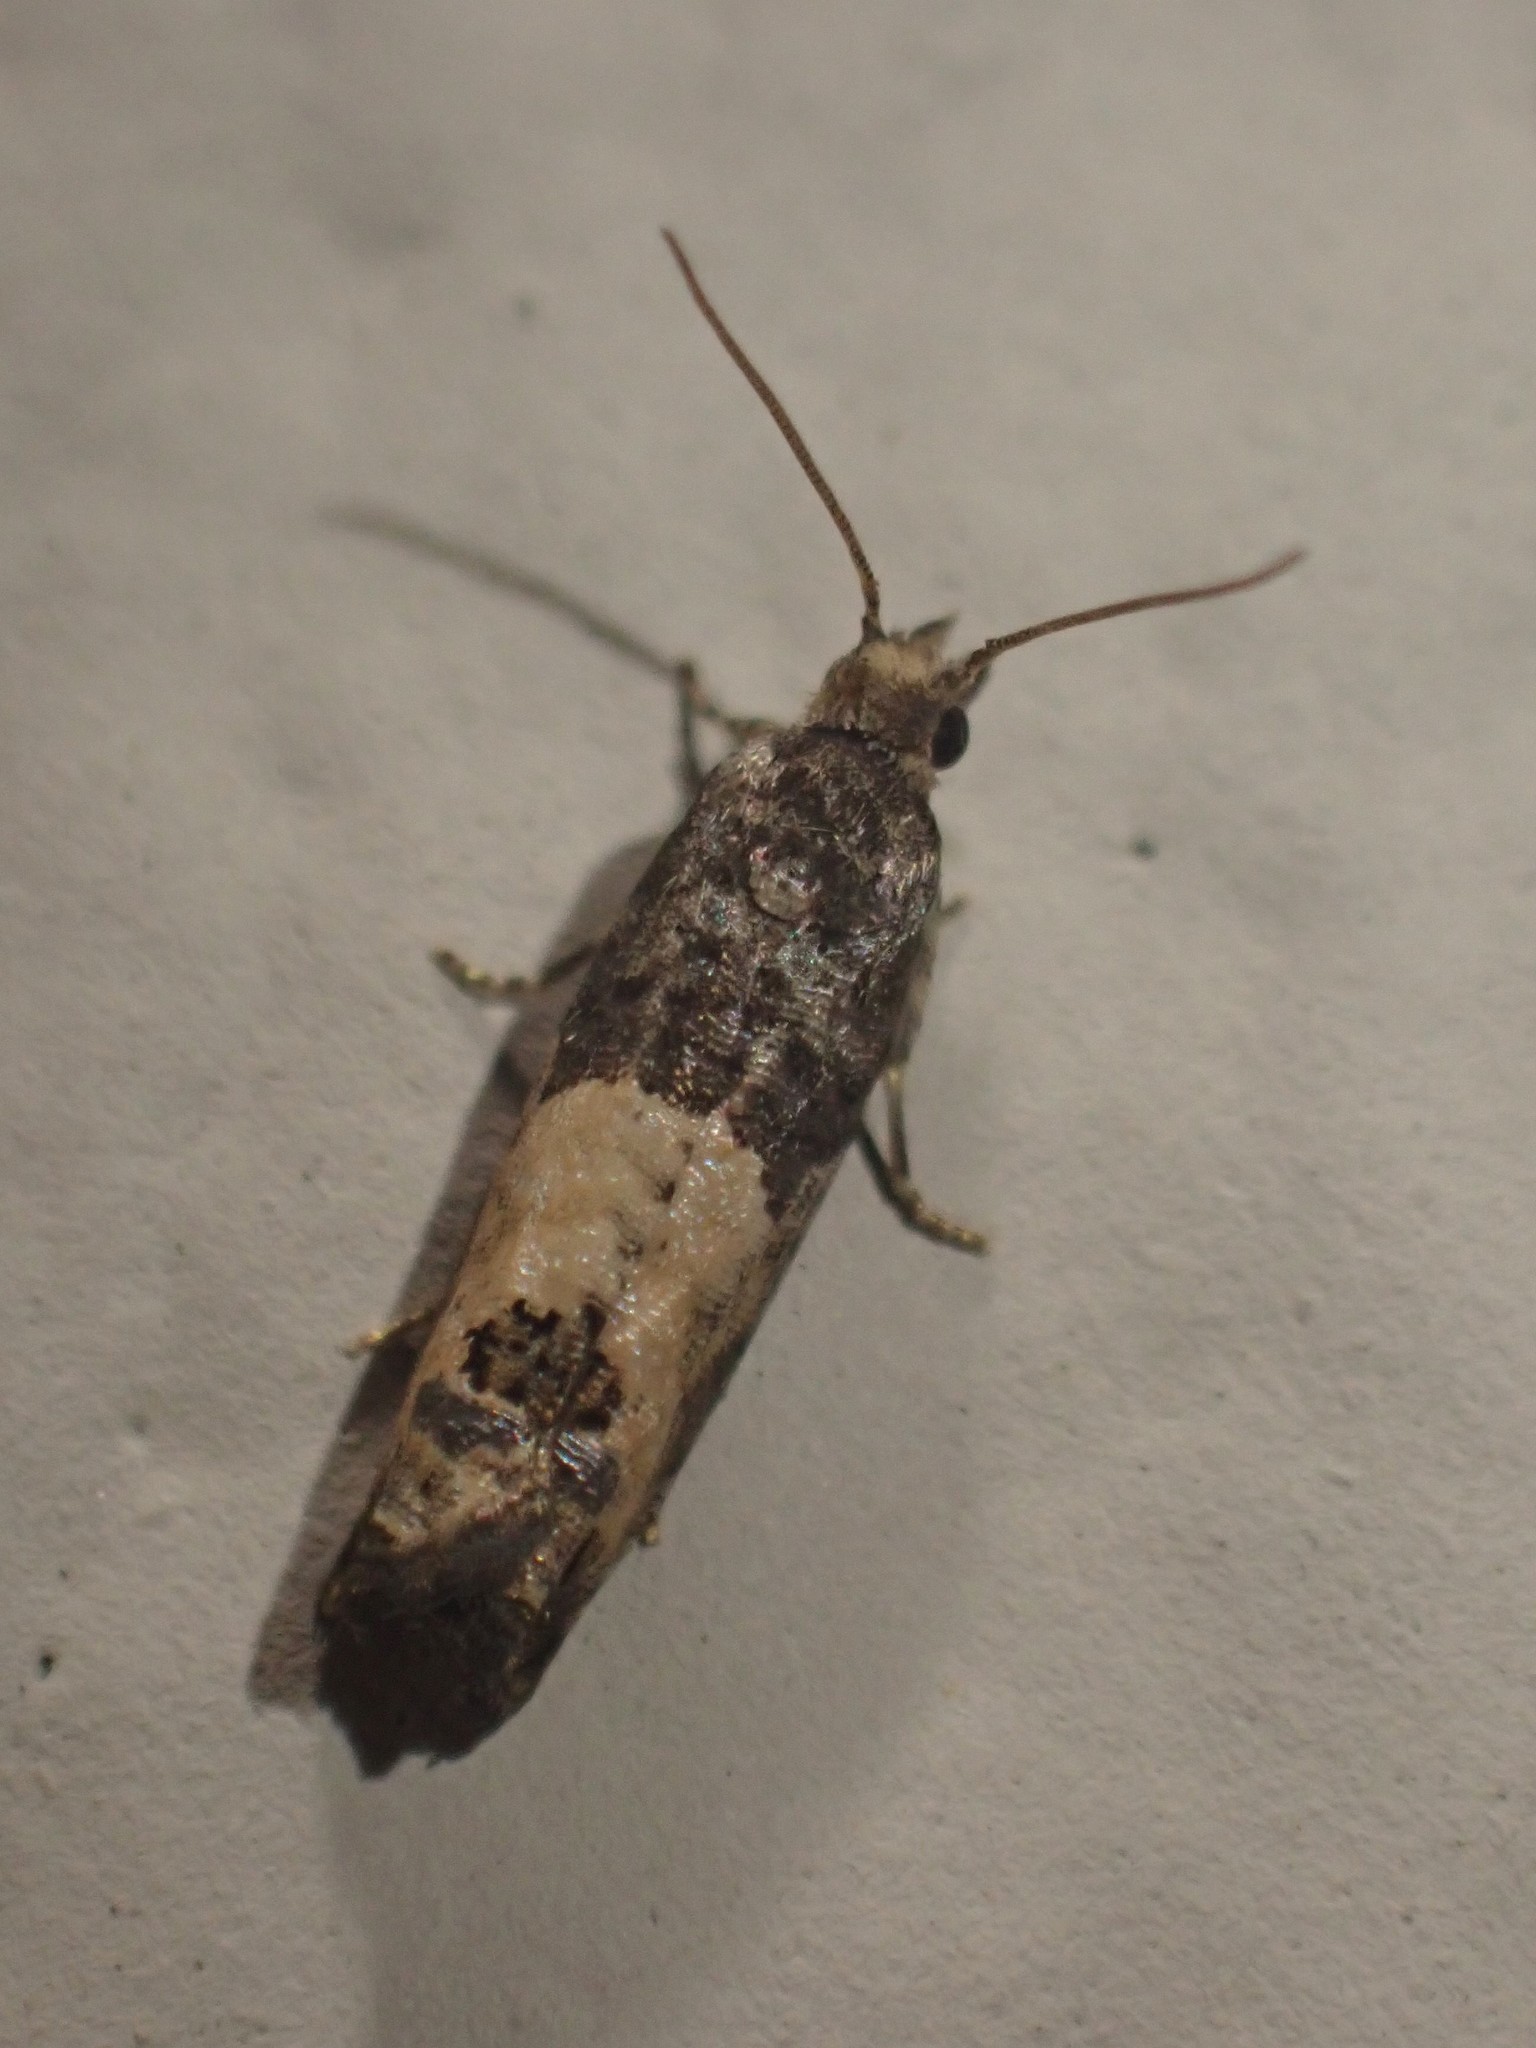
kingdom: Animalia
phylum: Arthropoda
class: Insecta
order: Lepidoptera
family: Tortricidae
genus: Spilonota
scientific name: Spilonota ocellana
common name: Bud moth
